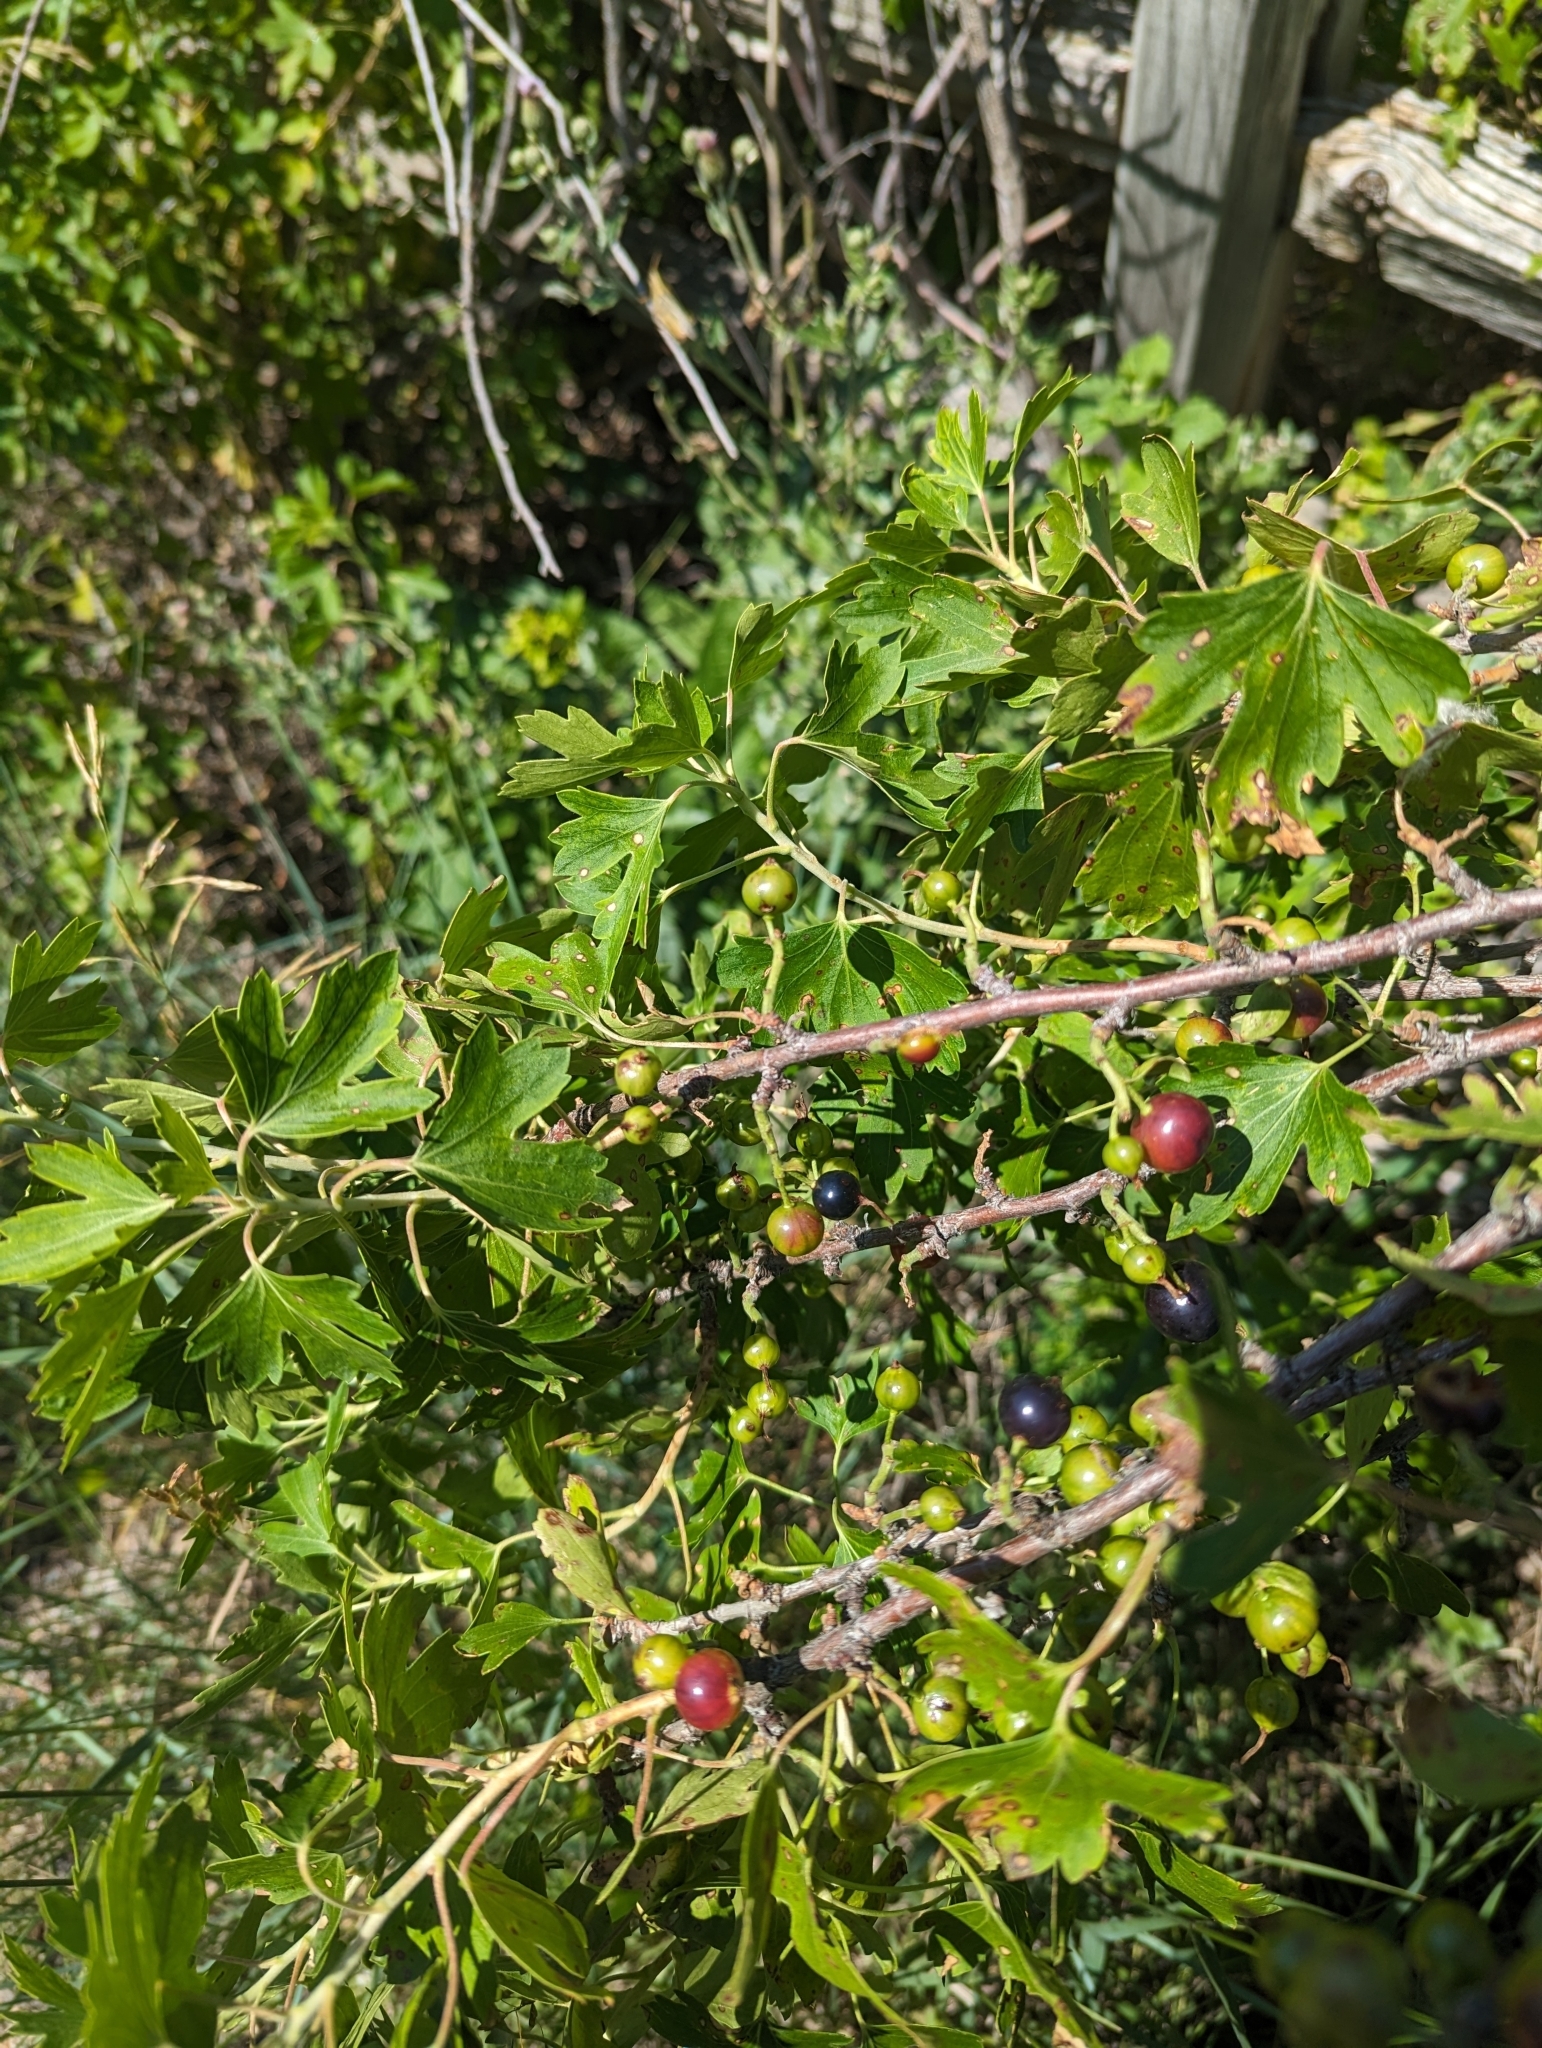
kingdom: Plantae
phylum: Tracheophyta
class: Magnoliopsida
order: Saxifragales
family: Grossulariaceae
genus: Ribes
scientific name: Ribes aureum
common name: Golden currant
